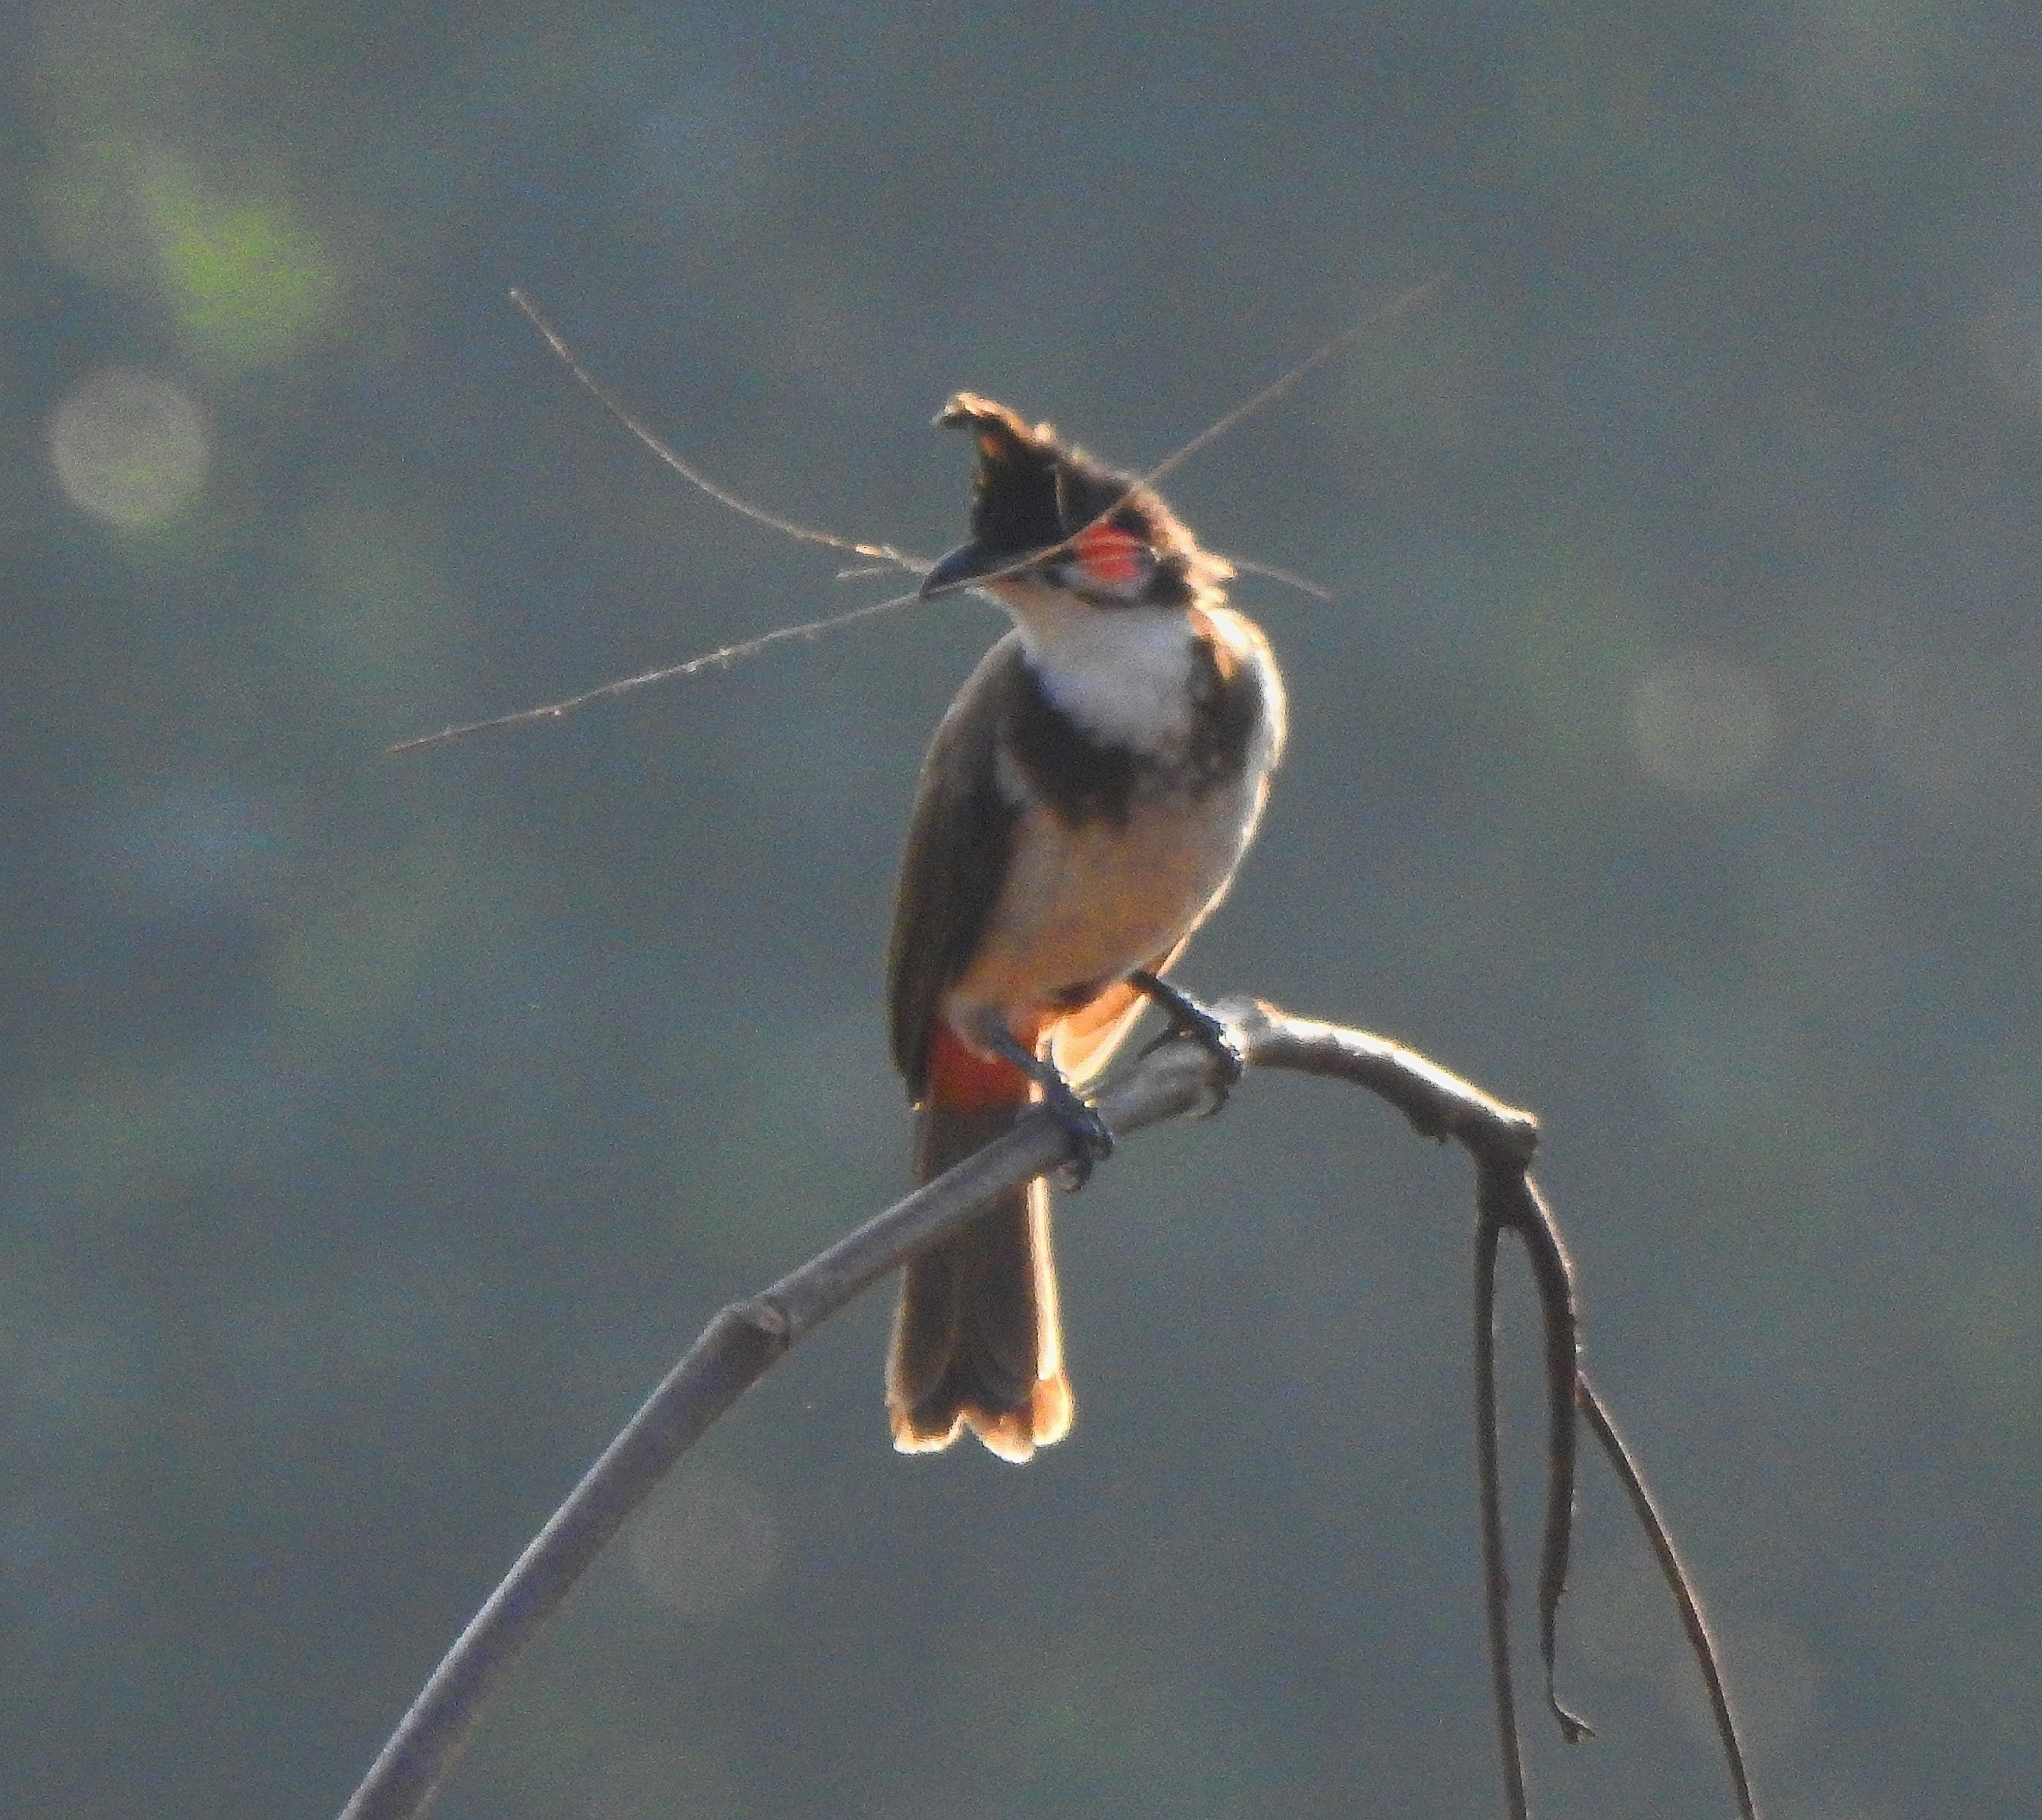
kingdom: Animalia
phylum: Chordata
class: Aves
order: Passeriformes
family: Pycnonotidae
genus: Pycnonotus
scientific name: Pycnonotus jocosus
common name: Red-whiskered bulbul
